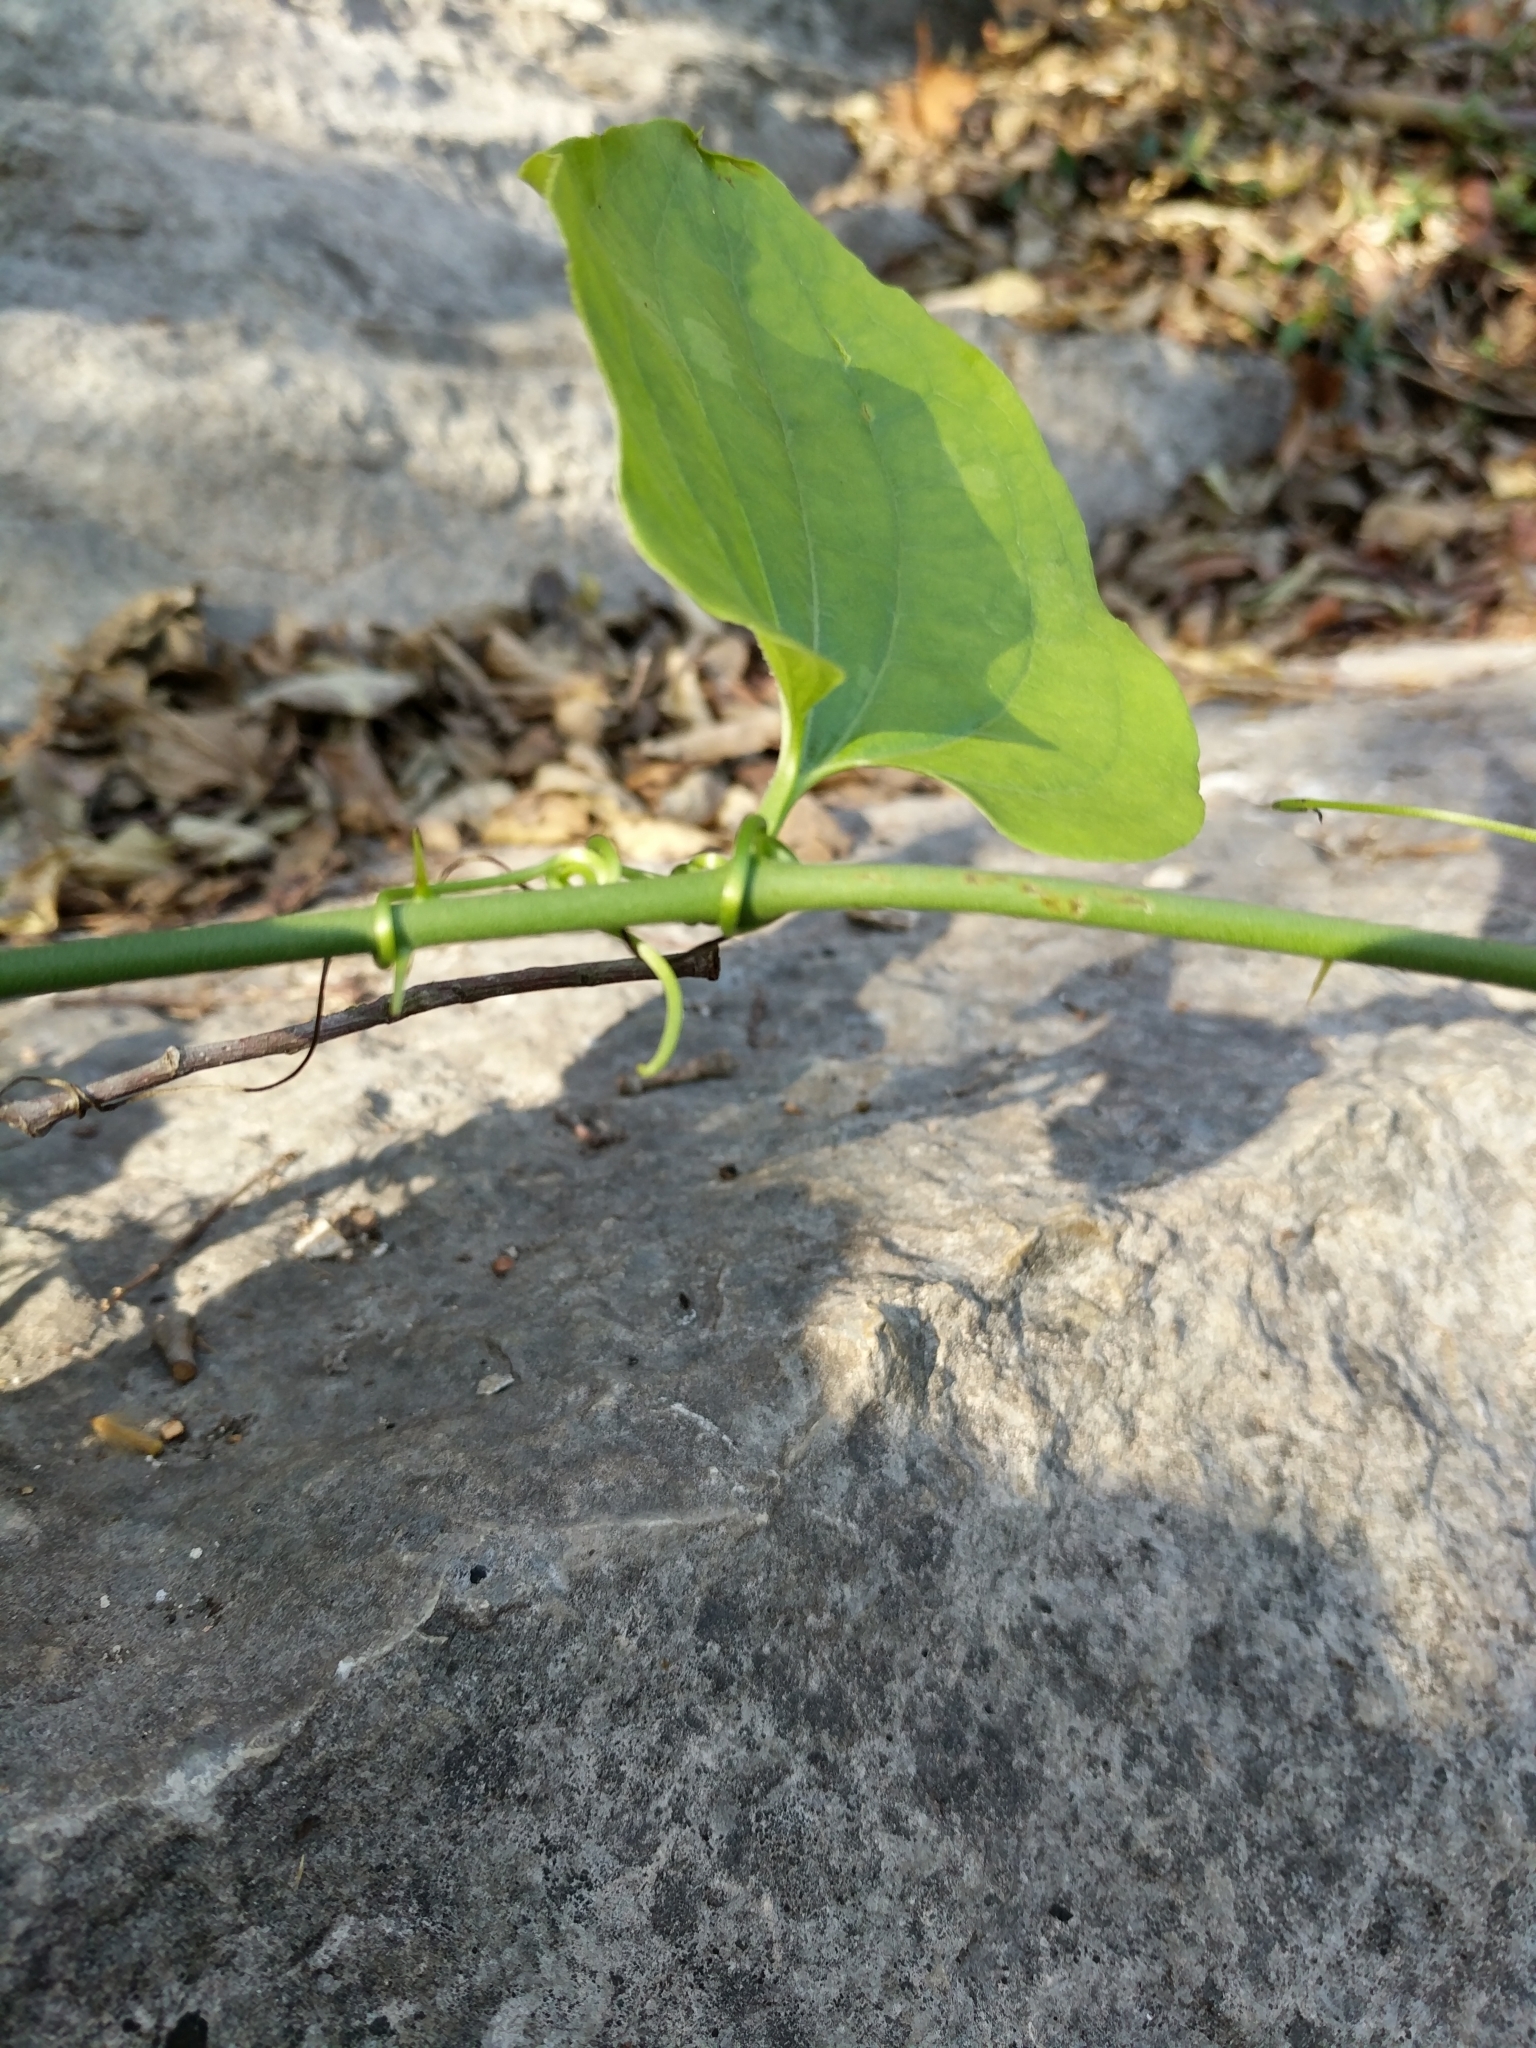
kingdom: Plantae
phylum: Tracheophyta
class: Liliopsida
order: Liliales
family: Smilacaceae
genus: Smilax
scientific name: Smilax tamnoides
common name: Hellfetter
